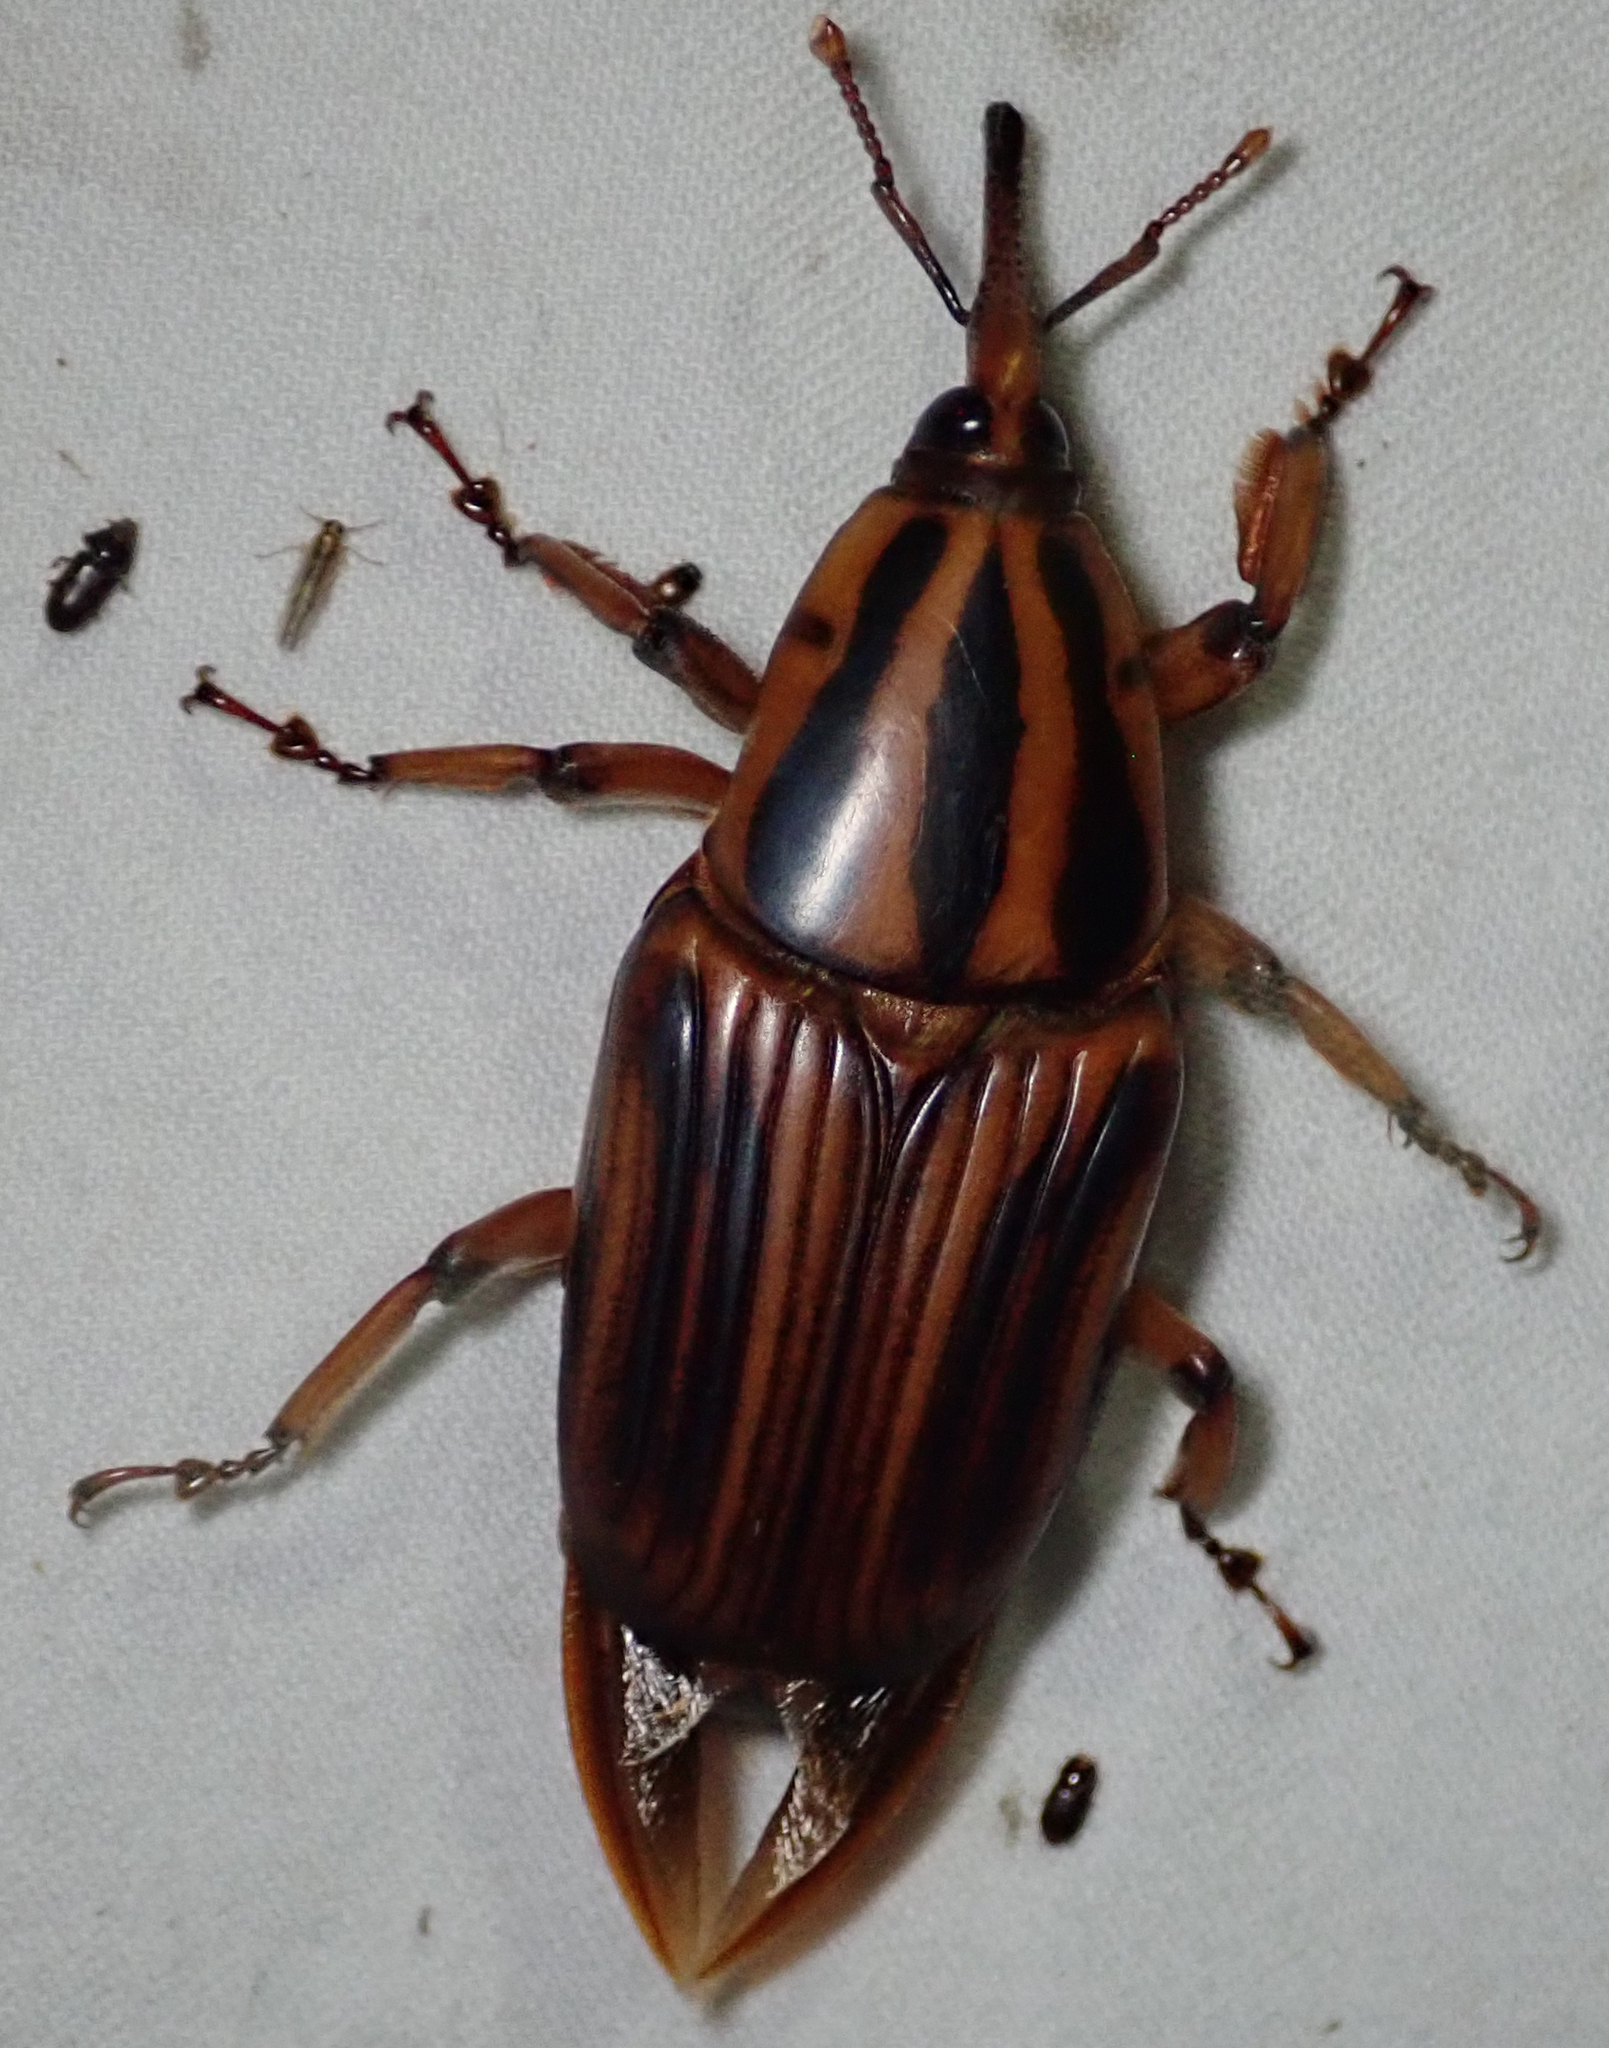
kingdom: Animalia
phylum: Arthropoda
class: Insecta
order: Coleoptera
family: Dryophthoridae
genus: Rhynchophorus
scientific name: Rhynchophorus phoenicis
